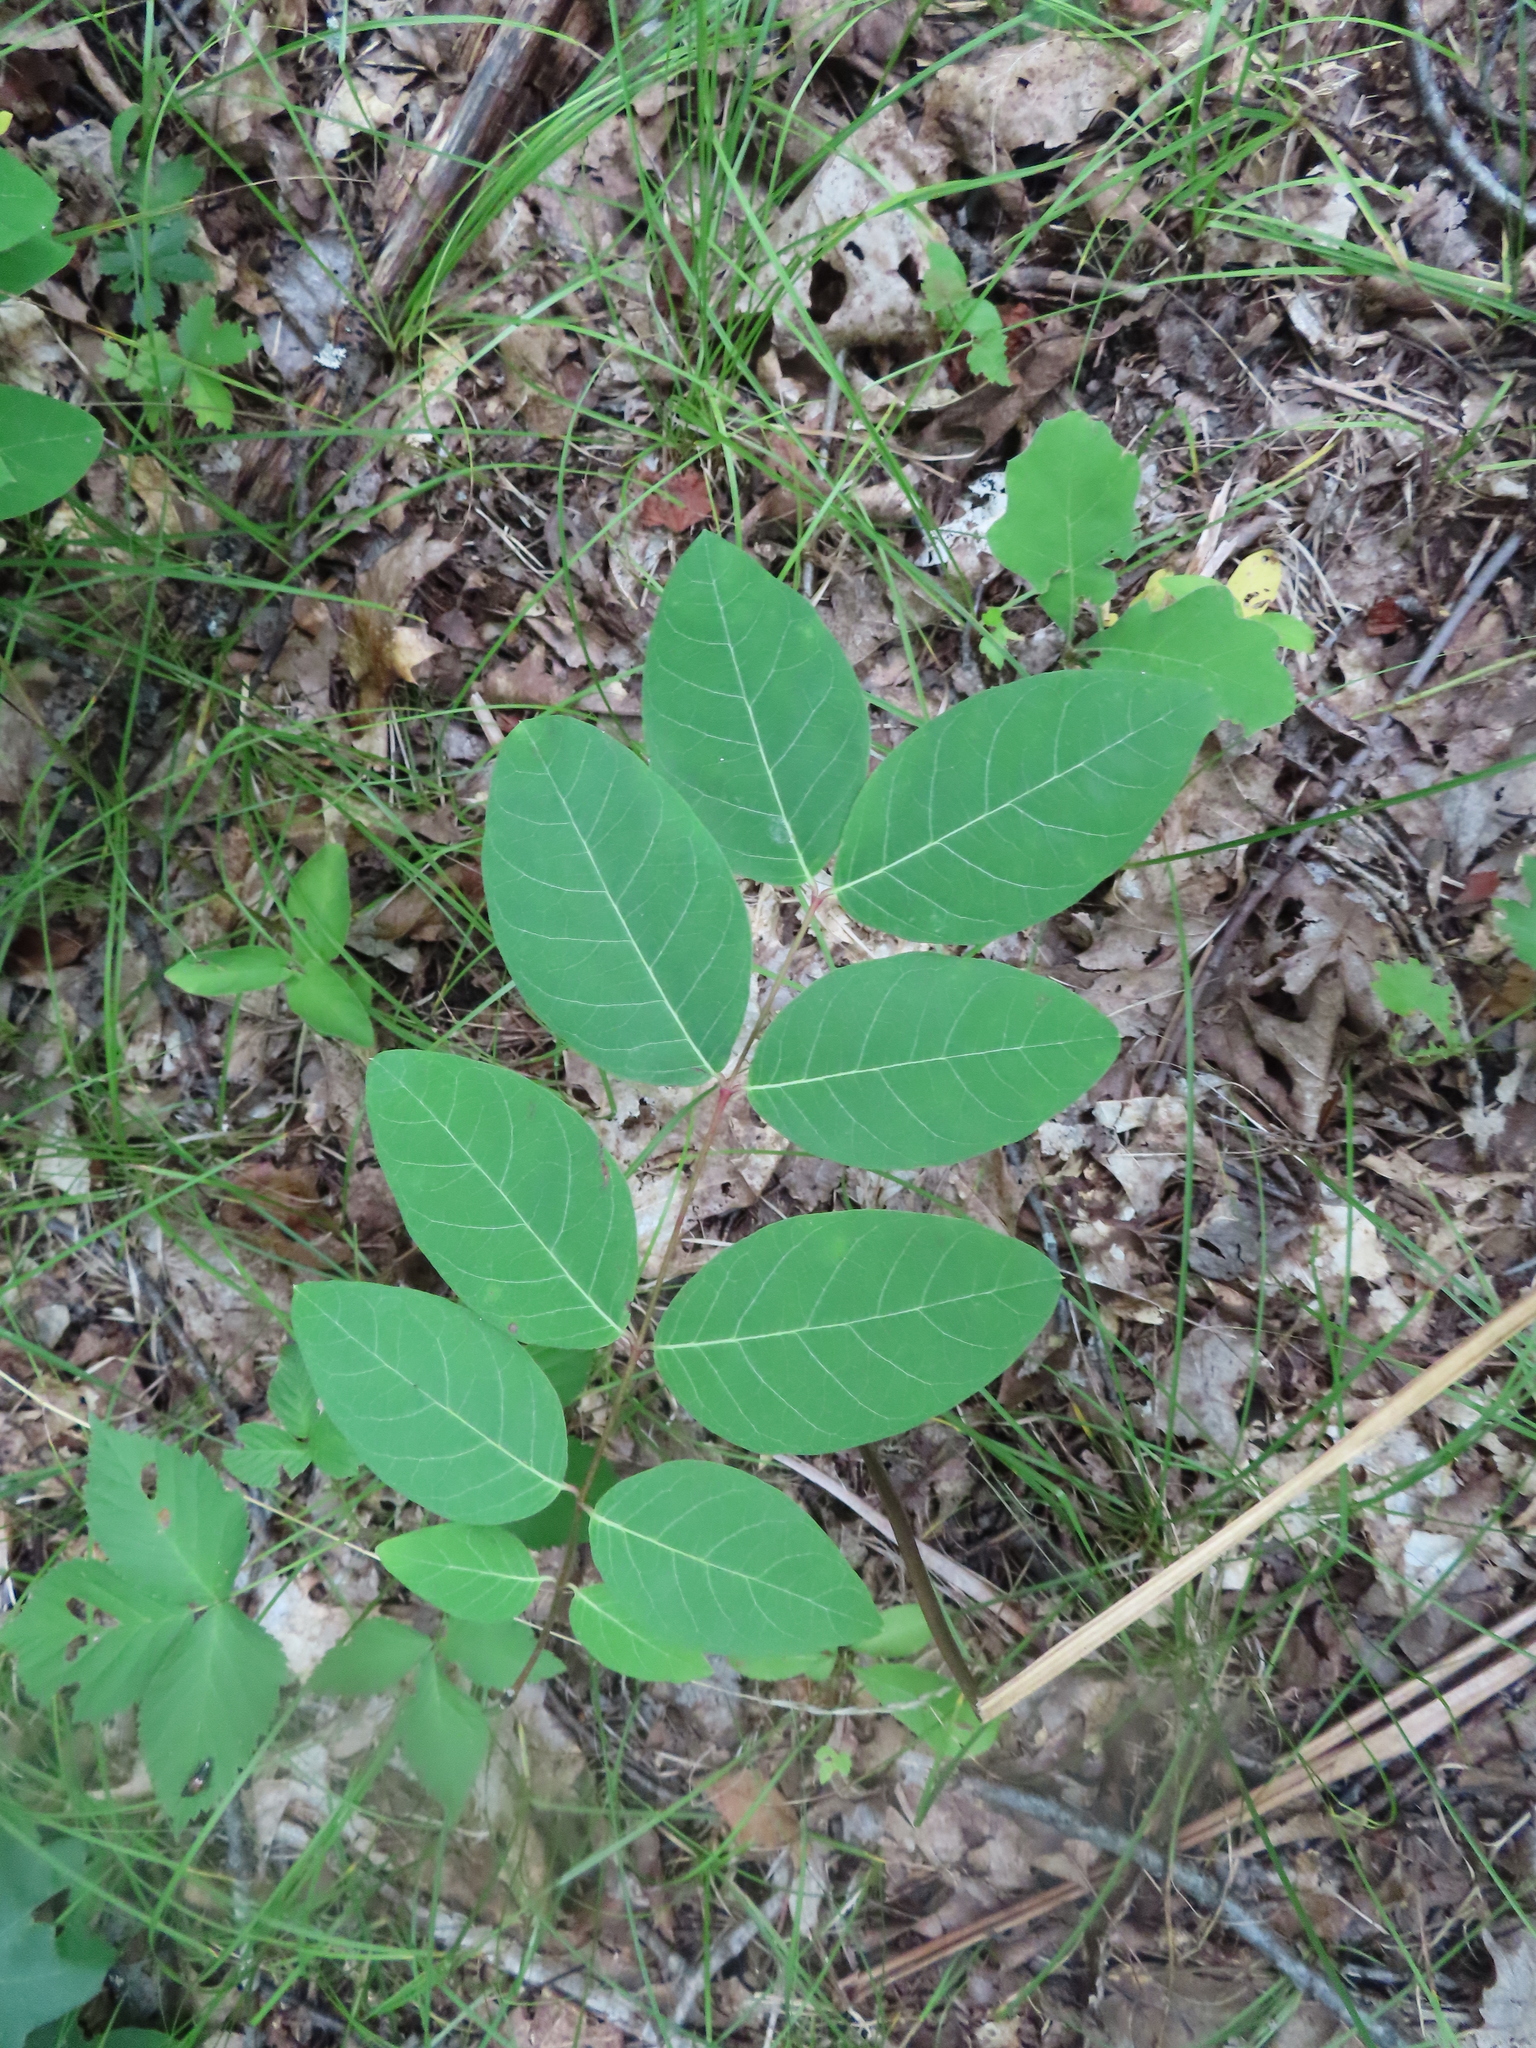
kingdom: Plantae
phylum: Tracheophyta
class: Magnoliopsida
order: Gentianales
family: Apocynaceae
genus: Apocynum
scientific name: Apocynum androsaemifolium
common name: Spreading dogbane
